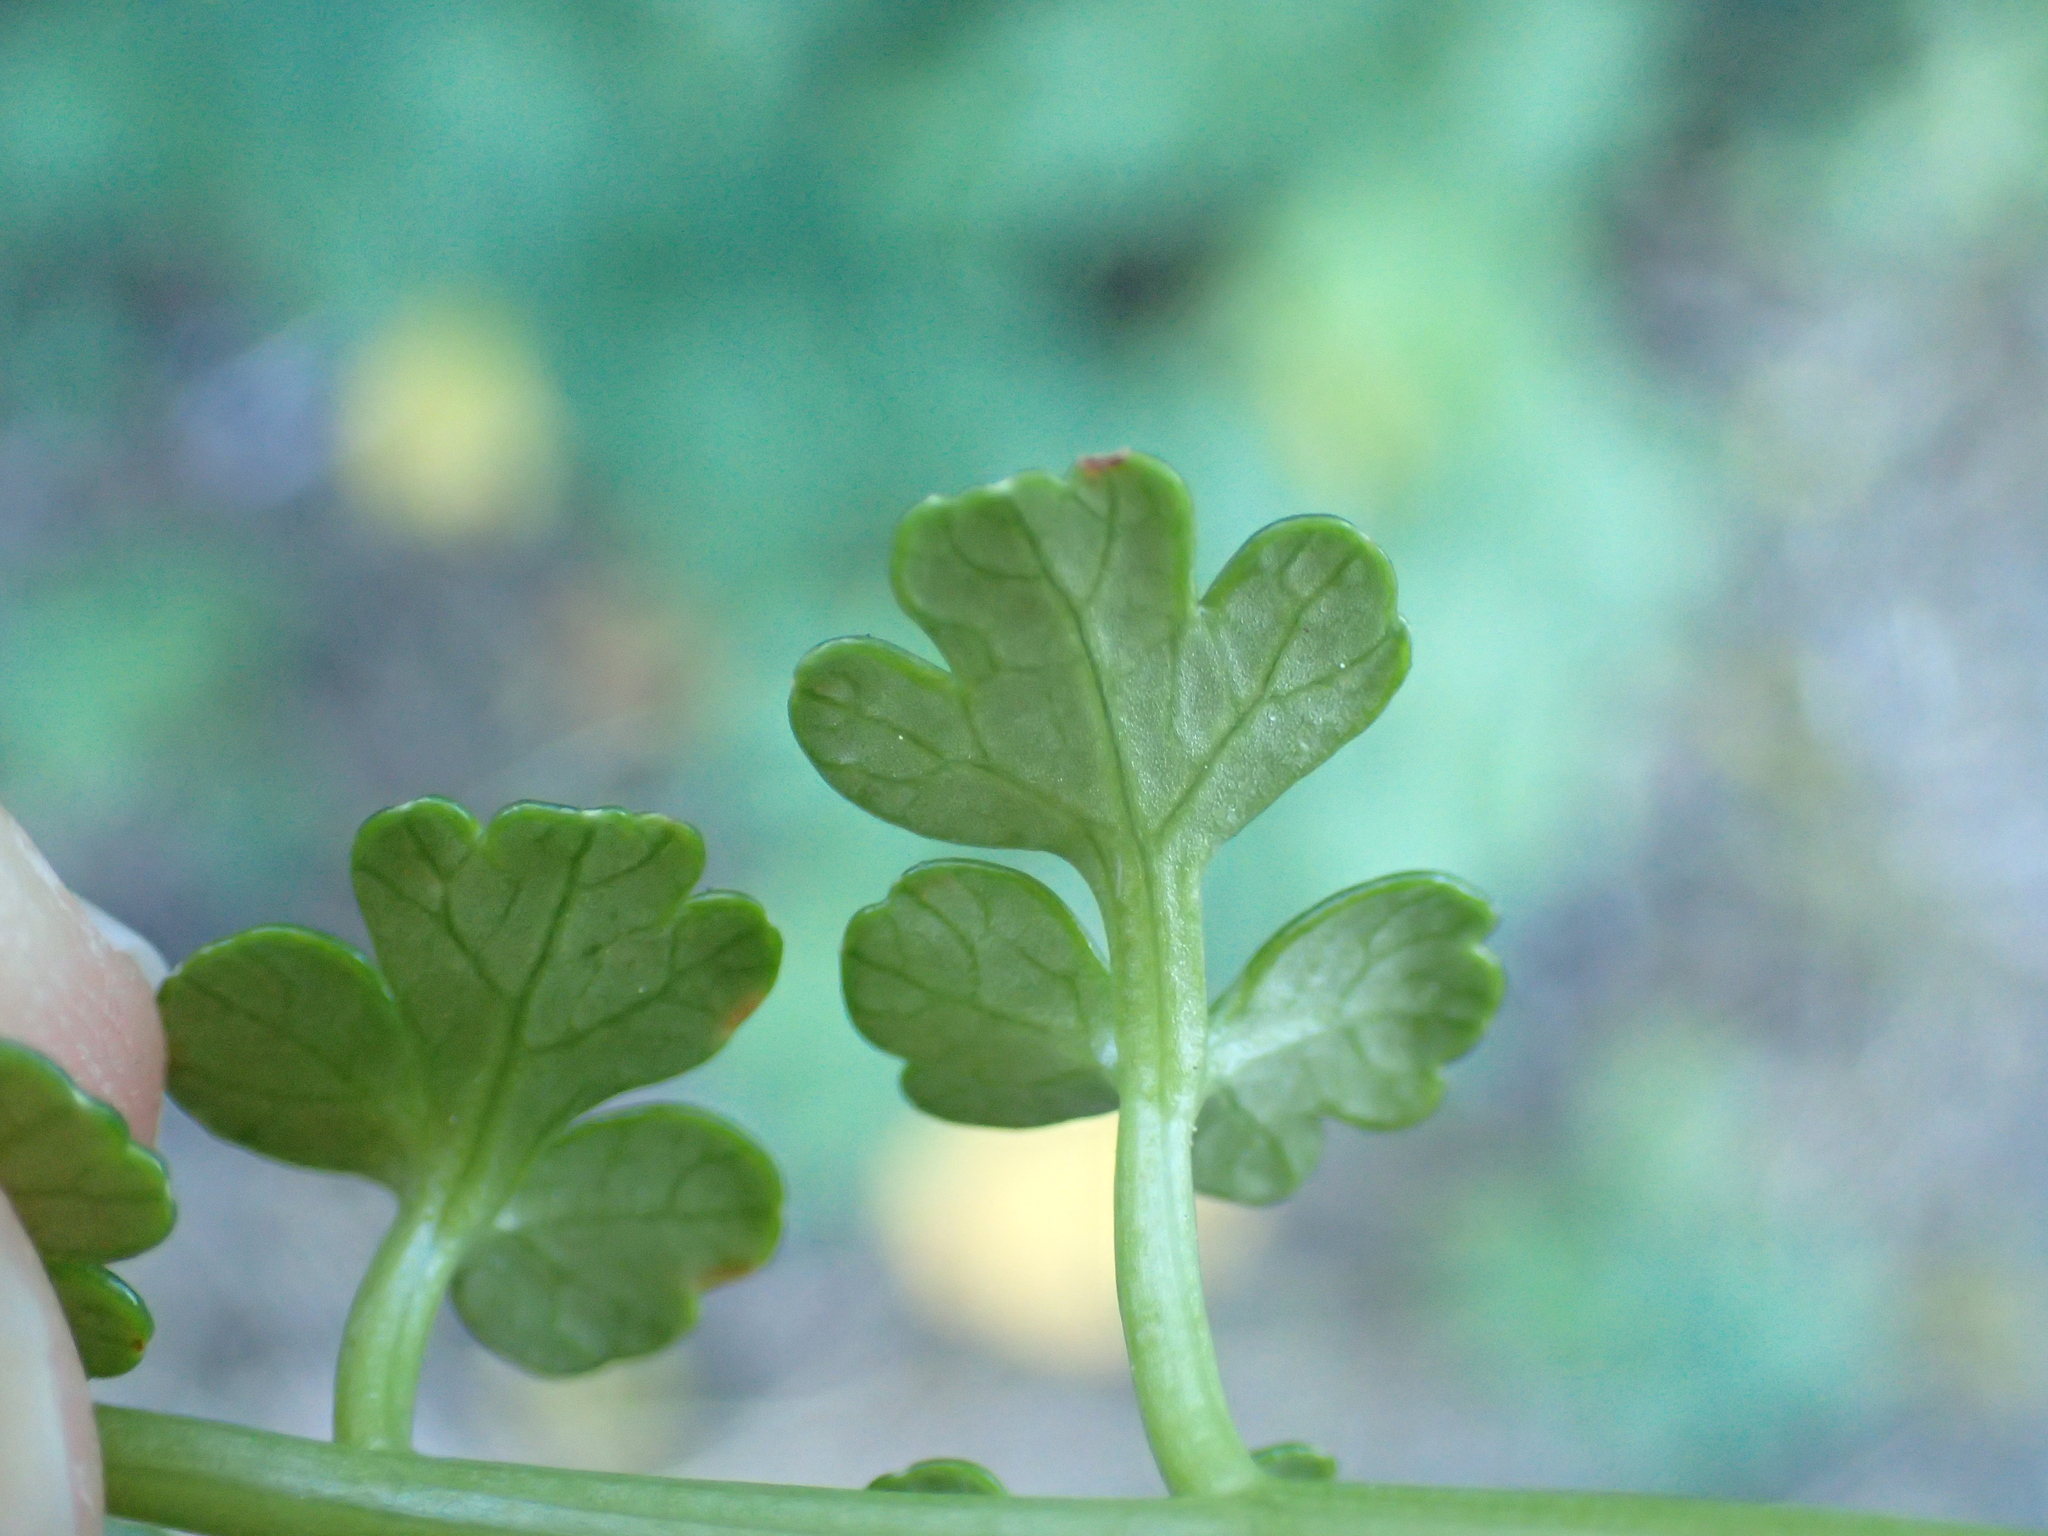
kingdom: Plantae
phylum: Tracheophyta
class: Magnoliopsida
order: Apiales
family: Apiaceae
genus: Apium
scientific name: Apium prostratum
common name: Prostrate marshwort
